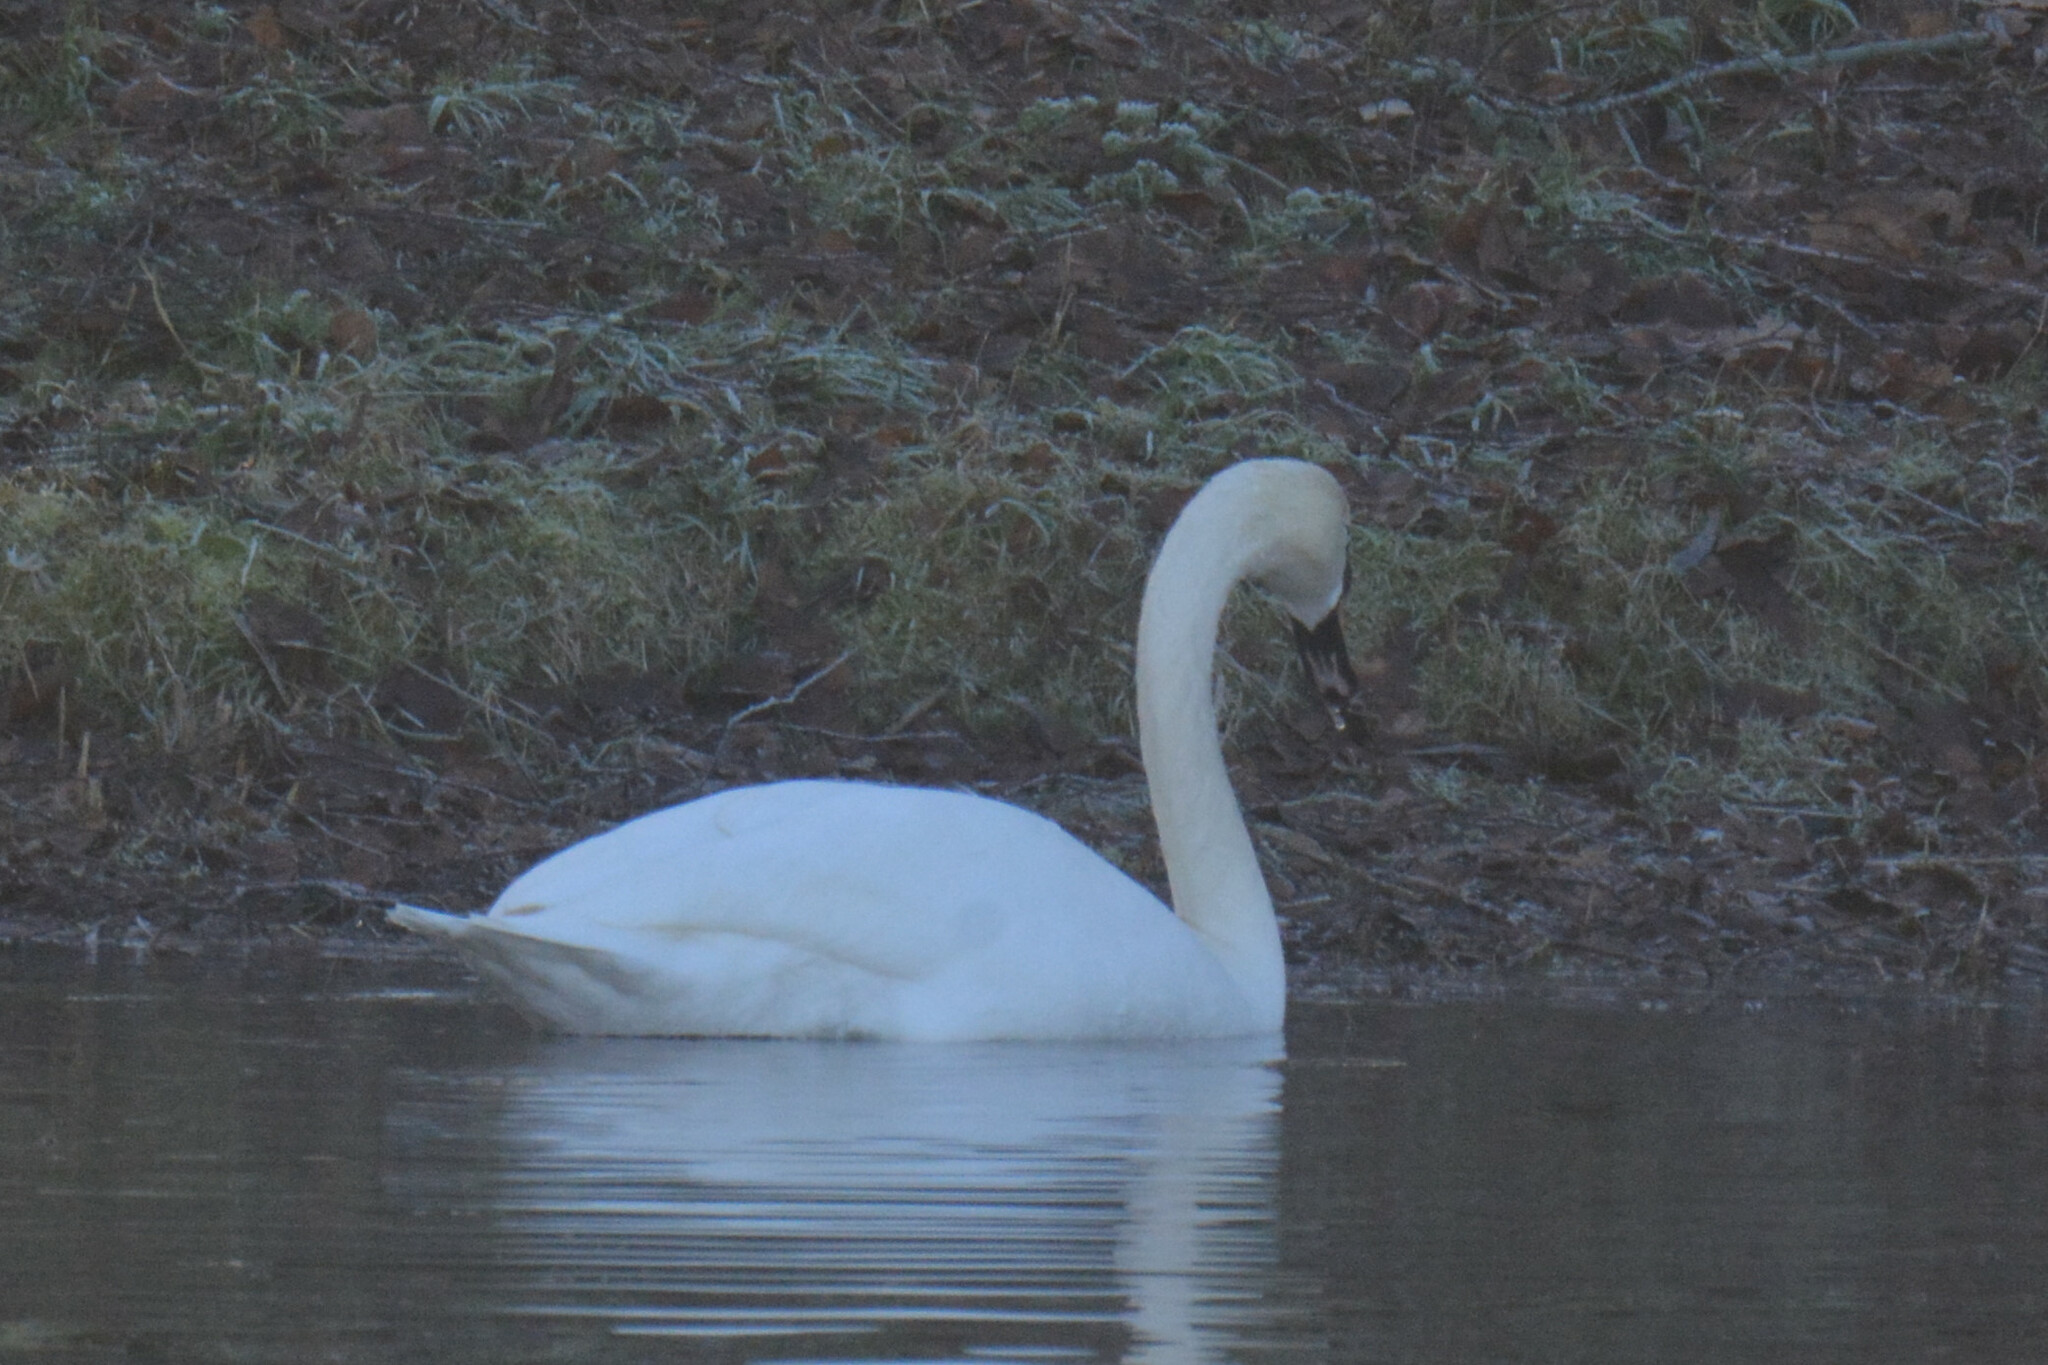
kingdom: Animalia
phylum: Chordata
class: Aves
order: Anseriformes
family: Anatidae
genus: Cygnus
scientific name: Cygnus olor
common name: Mute swan
